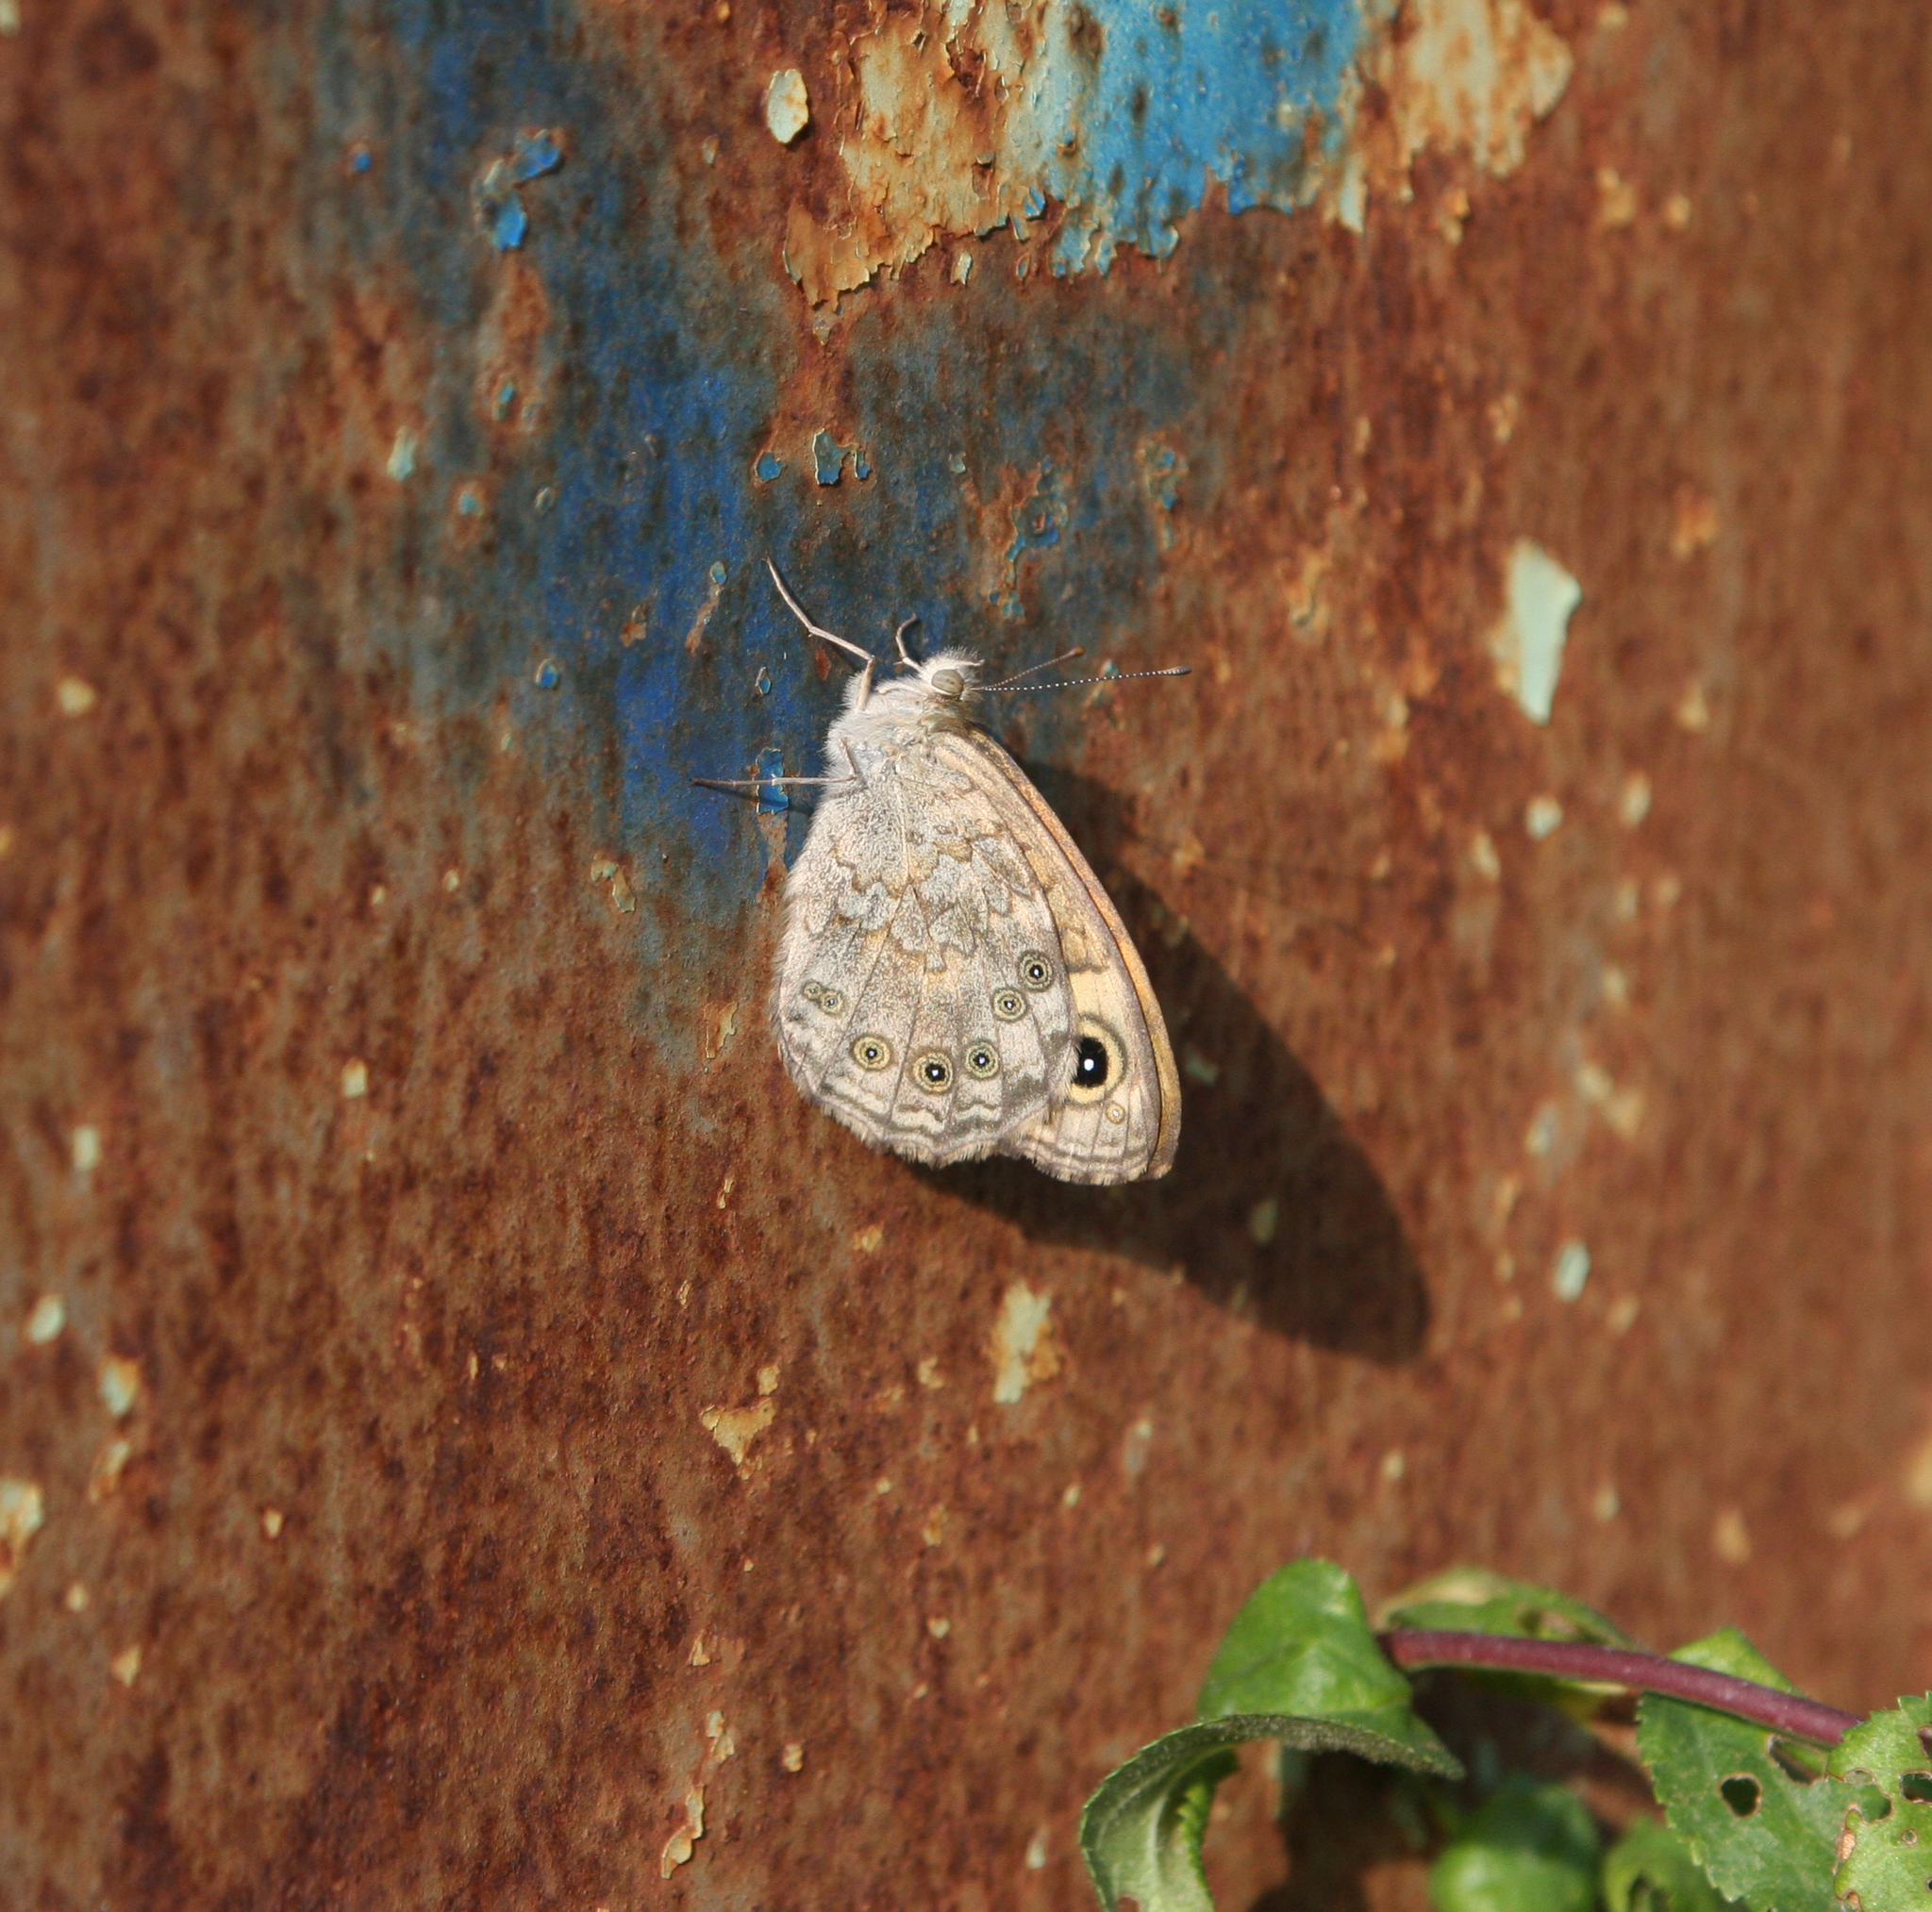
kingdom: Animalia
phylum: Arthropoda
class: Insecta
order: Lepidoptera
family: Nymphalidae
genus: Pararge
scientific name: Pararge Lasiommata megera
